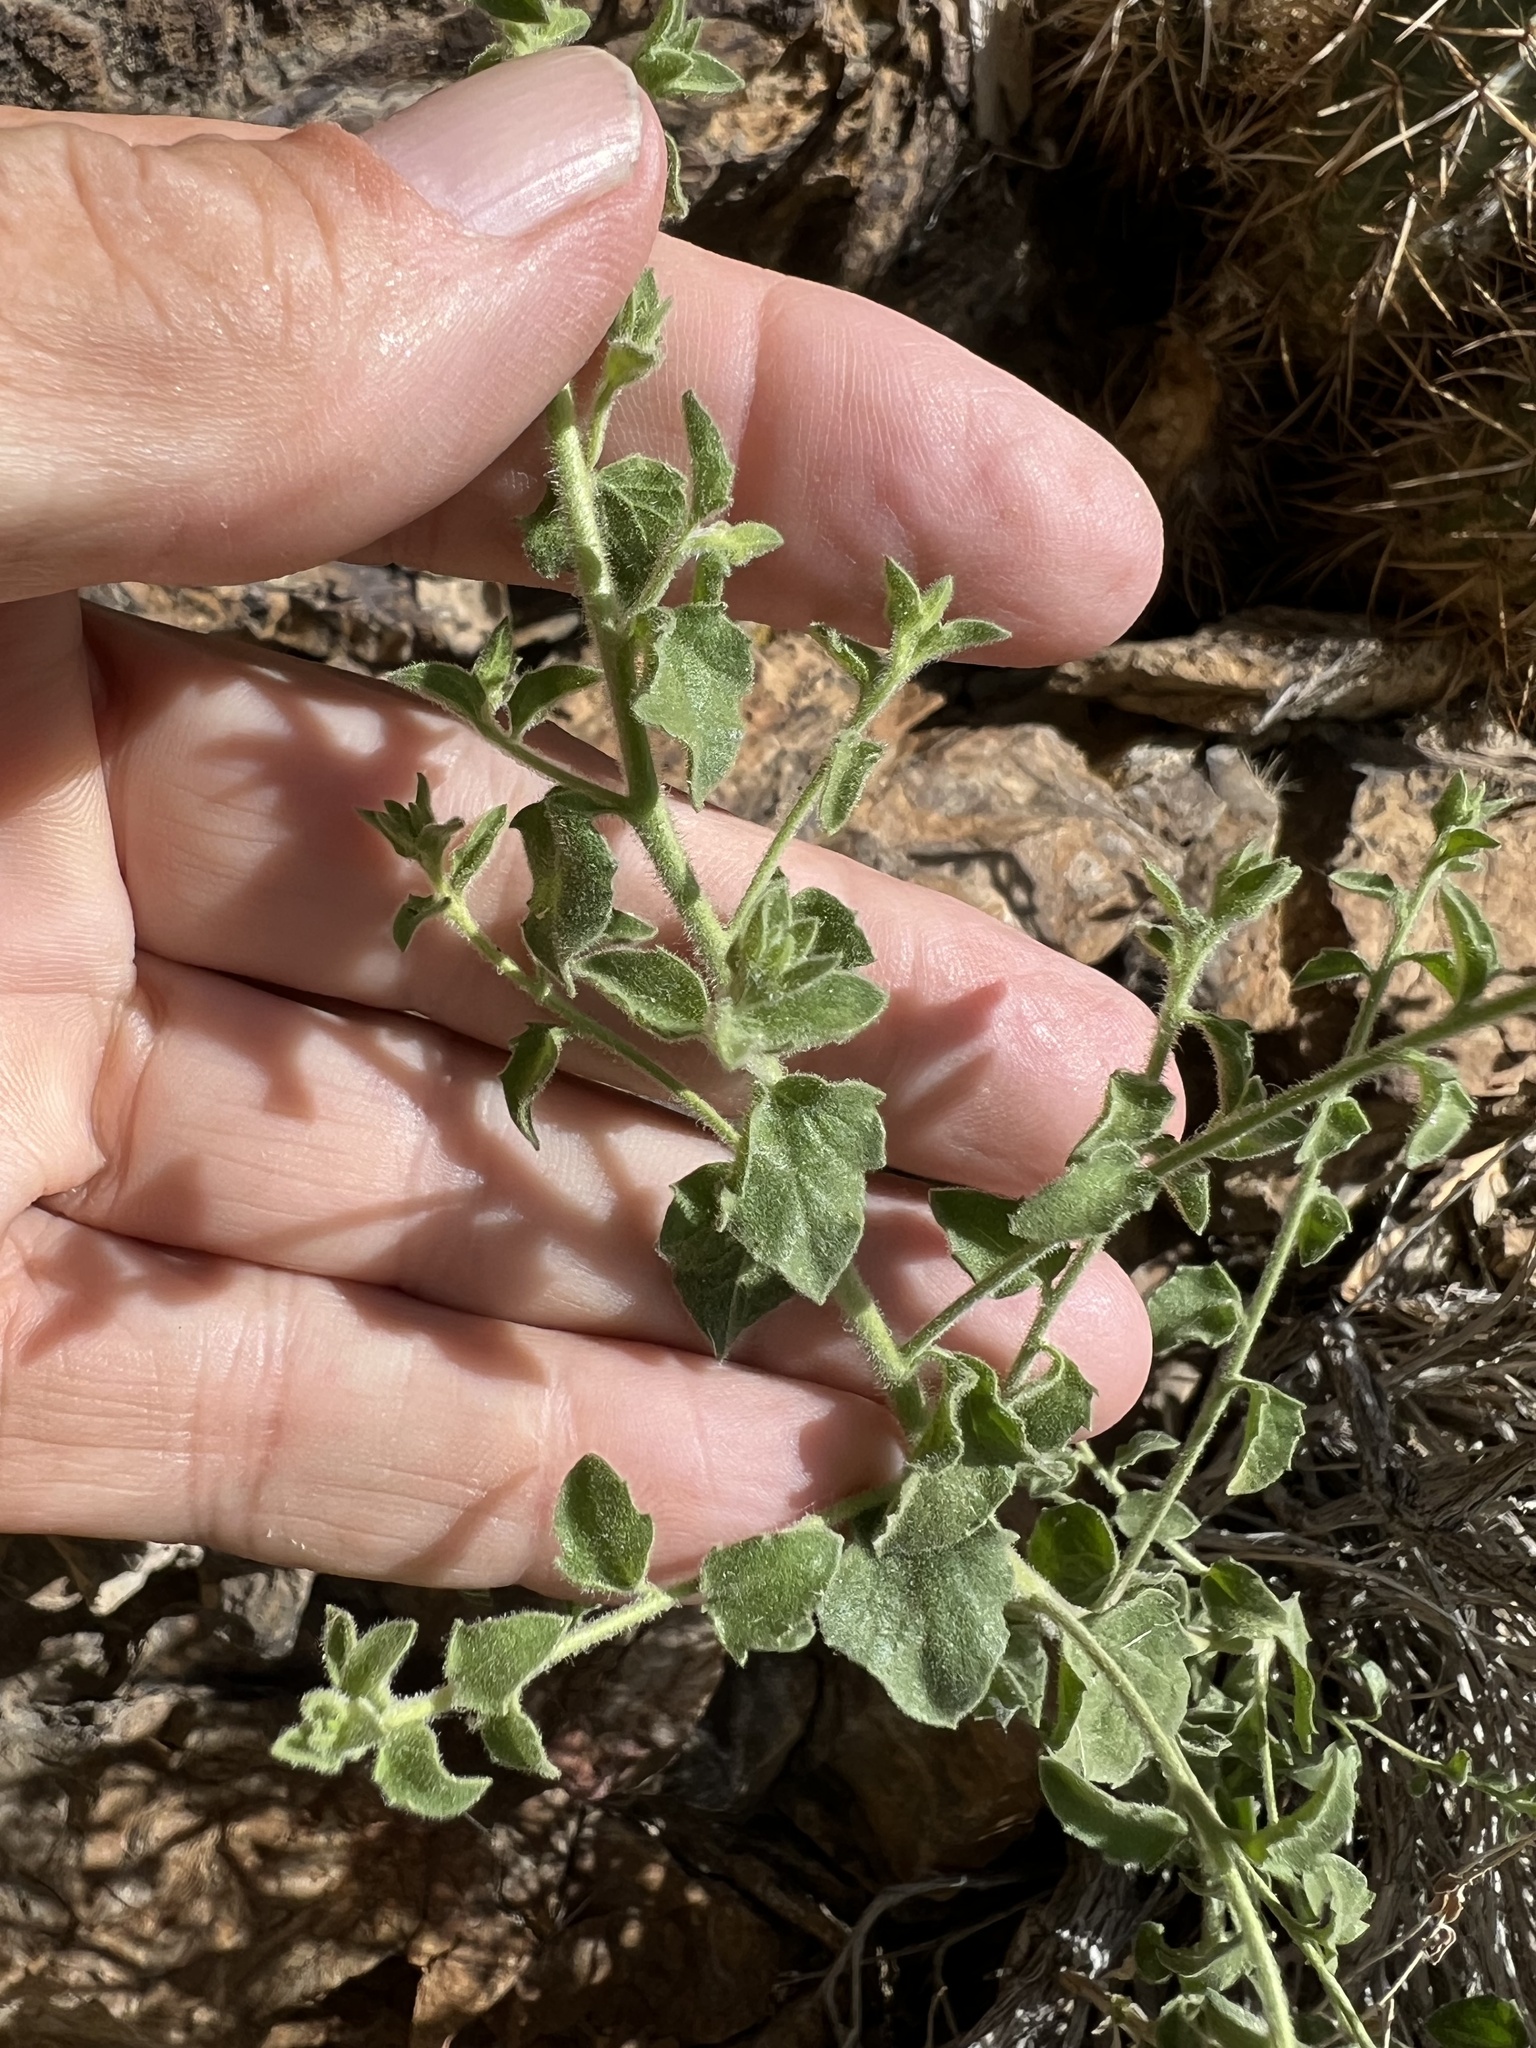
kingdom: Plantae
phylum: Tracheophyta
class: Magnoliopsida
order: Asterales
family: Asteraceae
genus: Brickellia
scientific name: Brickellia microphylla
